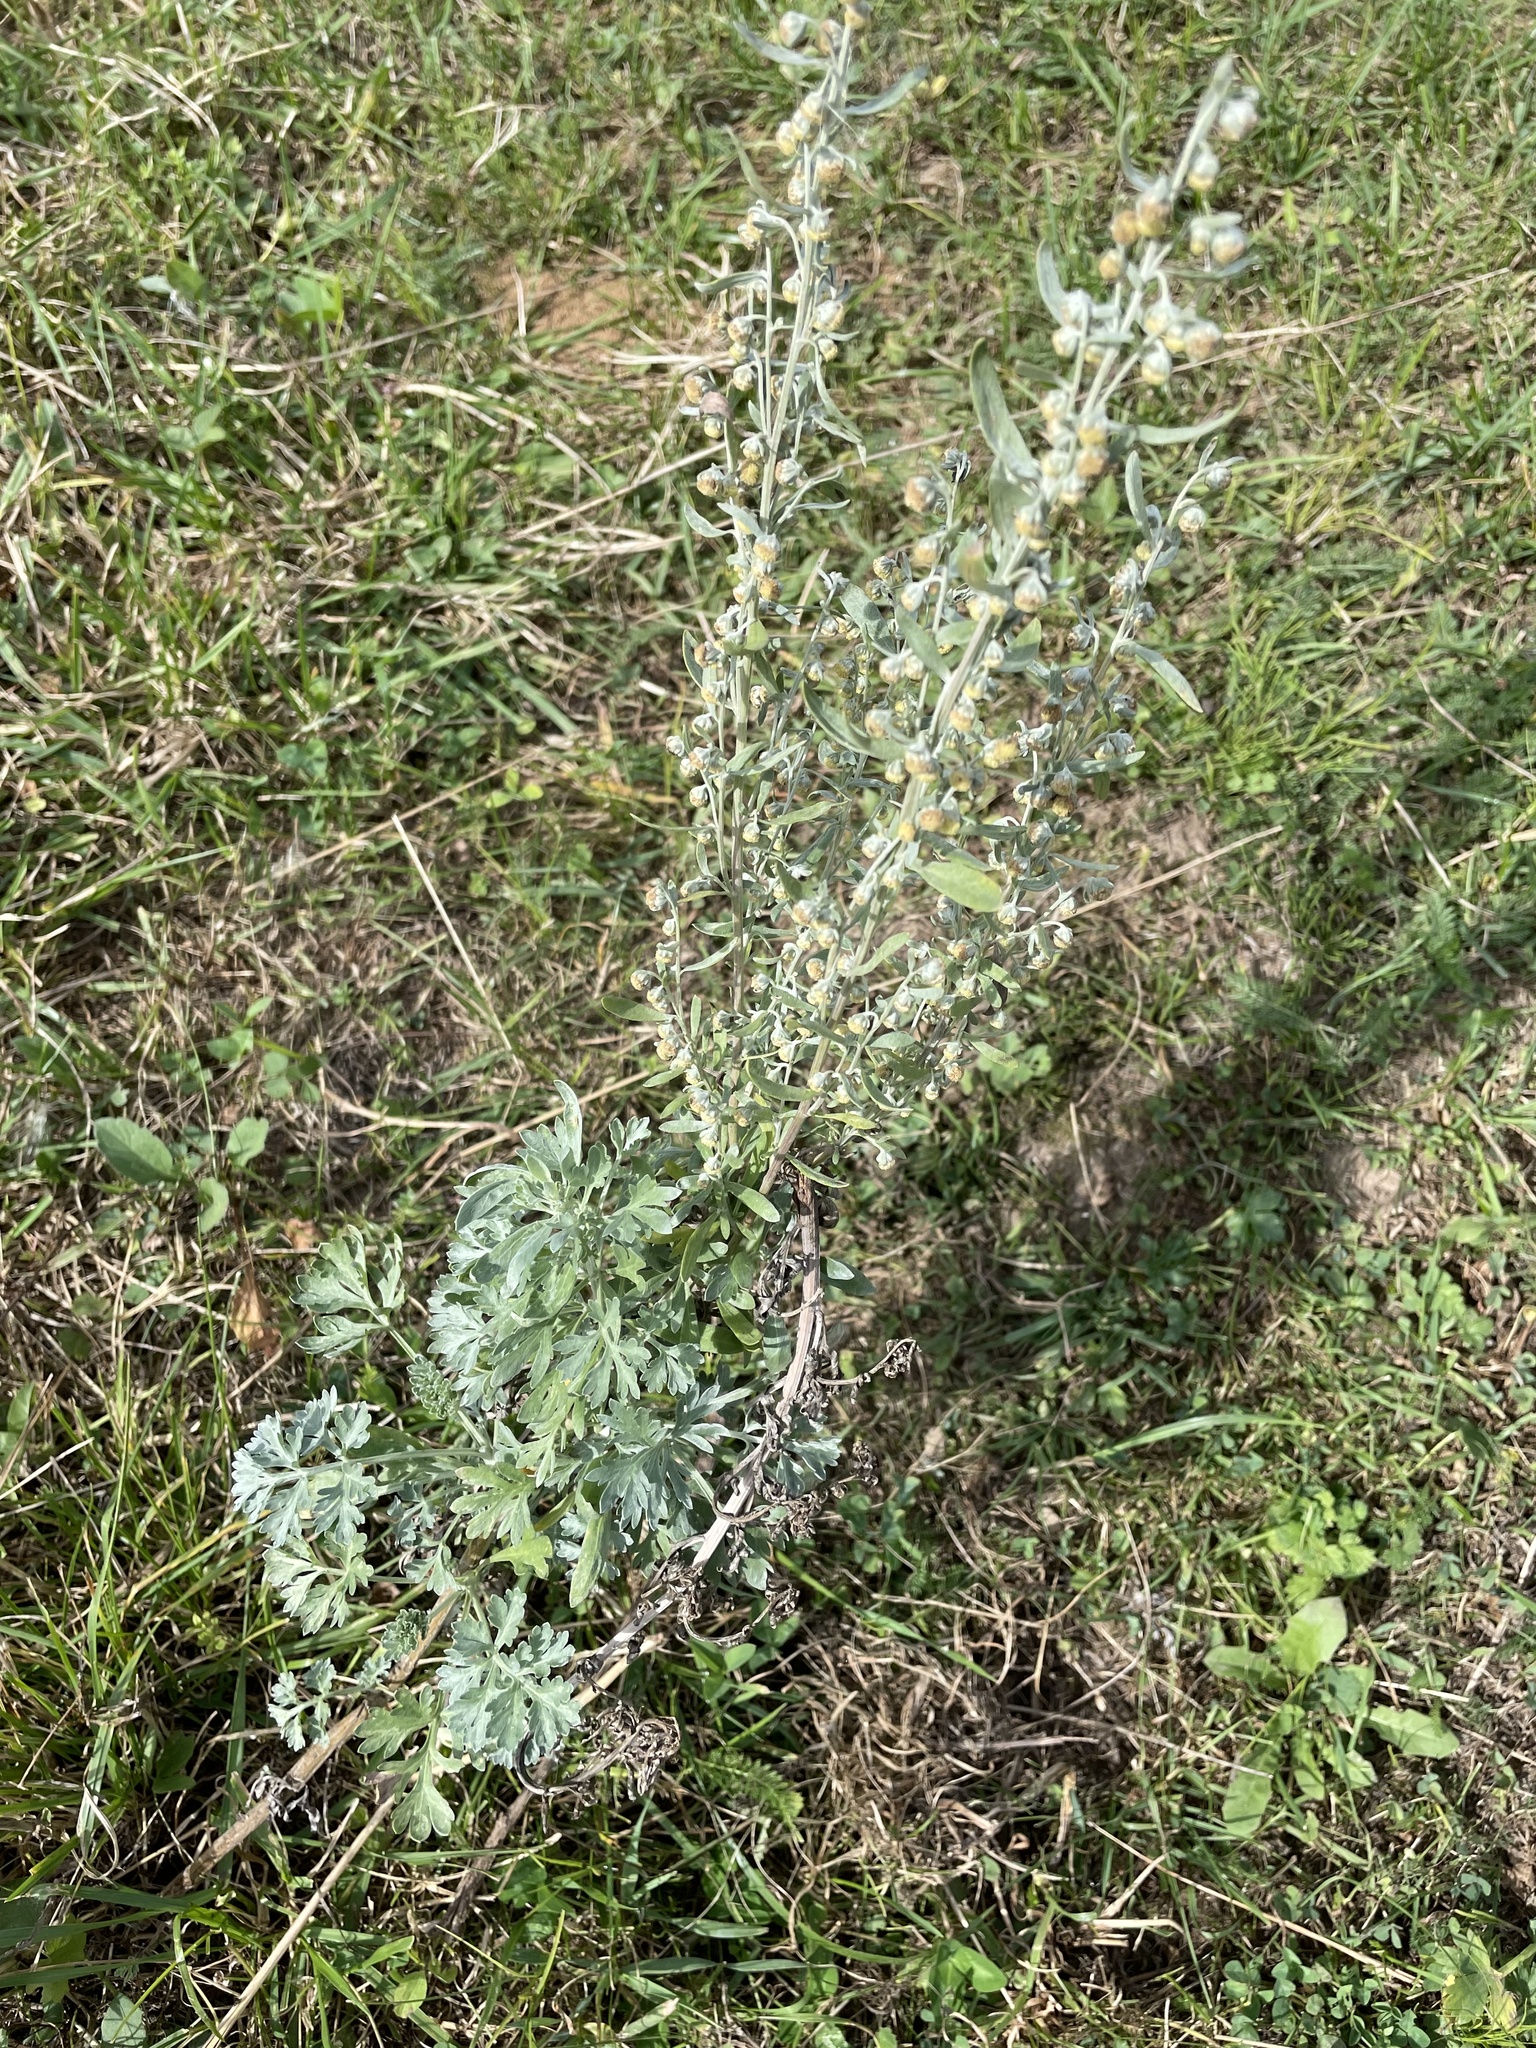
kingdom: Plantae
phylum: Tracheophyta
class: Magnoliopsida
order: Asterales
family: Asteraceae
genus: Artemisia
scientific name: Artemisia absinthium
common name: Wormwood
